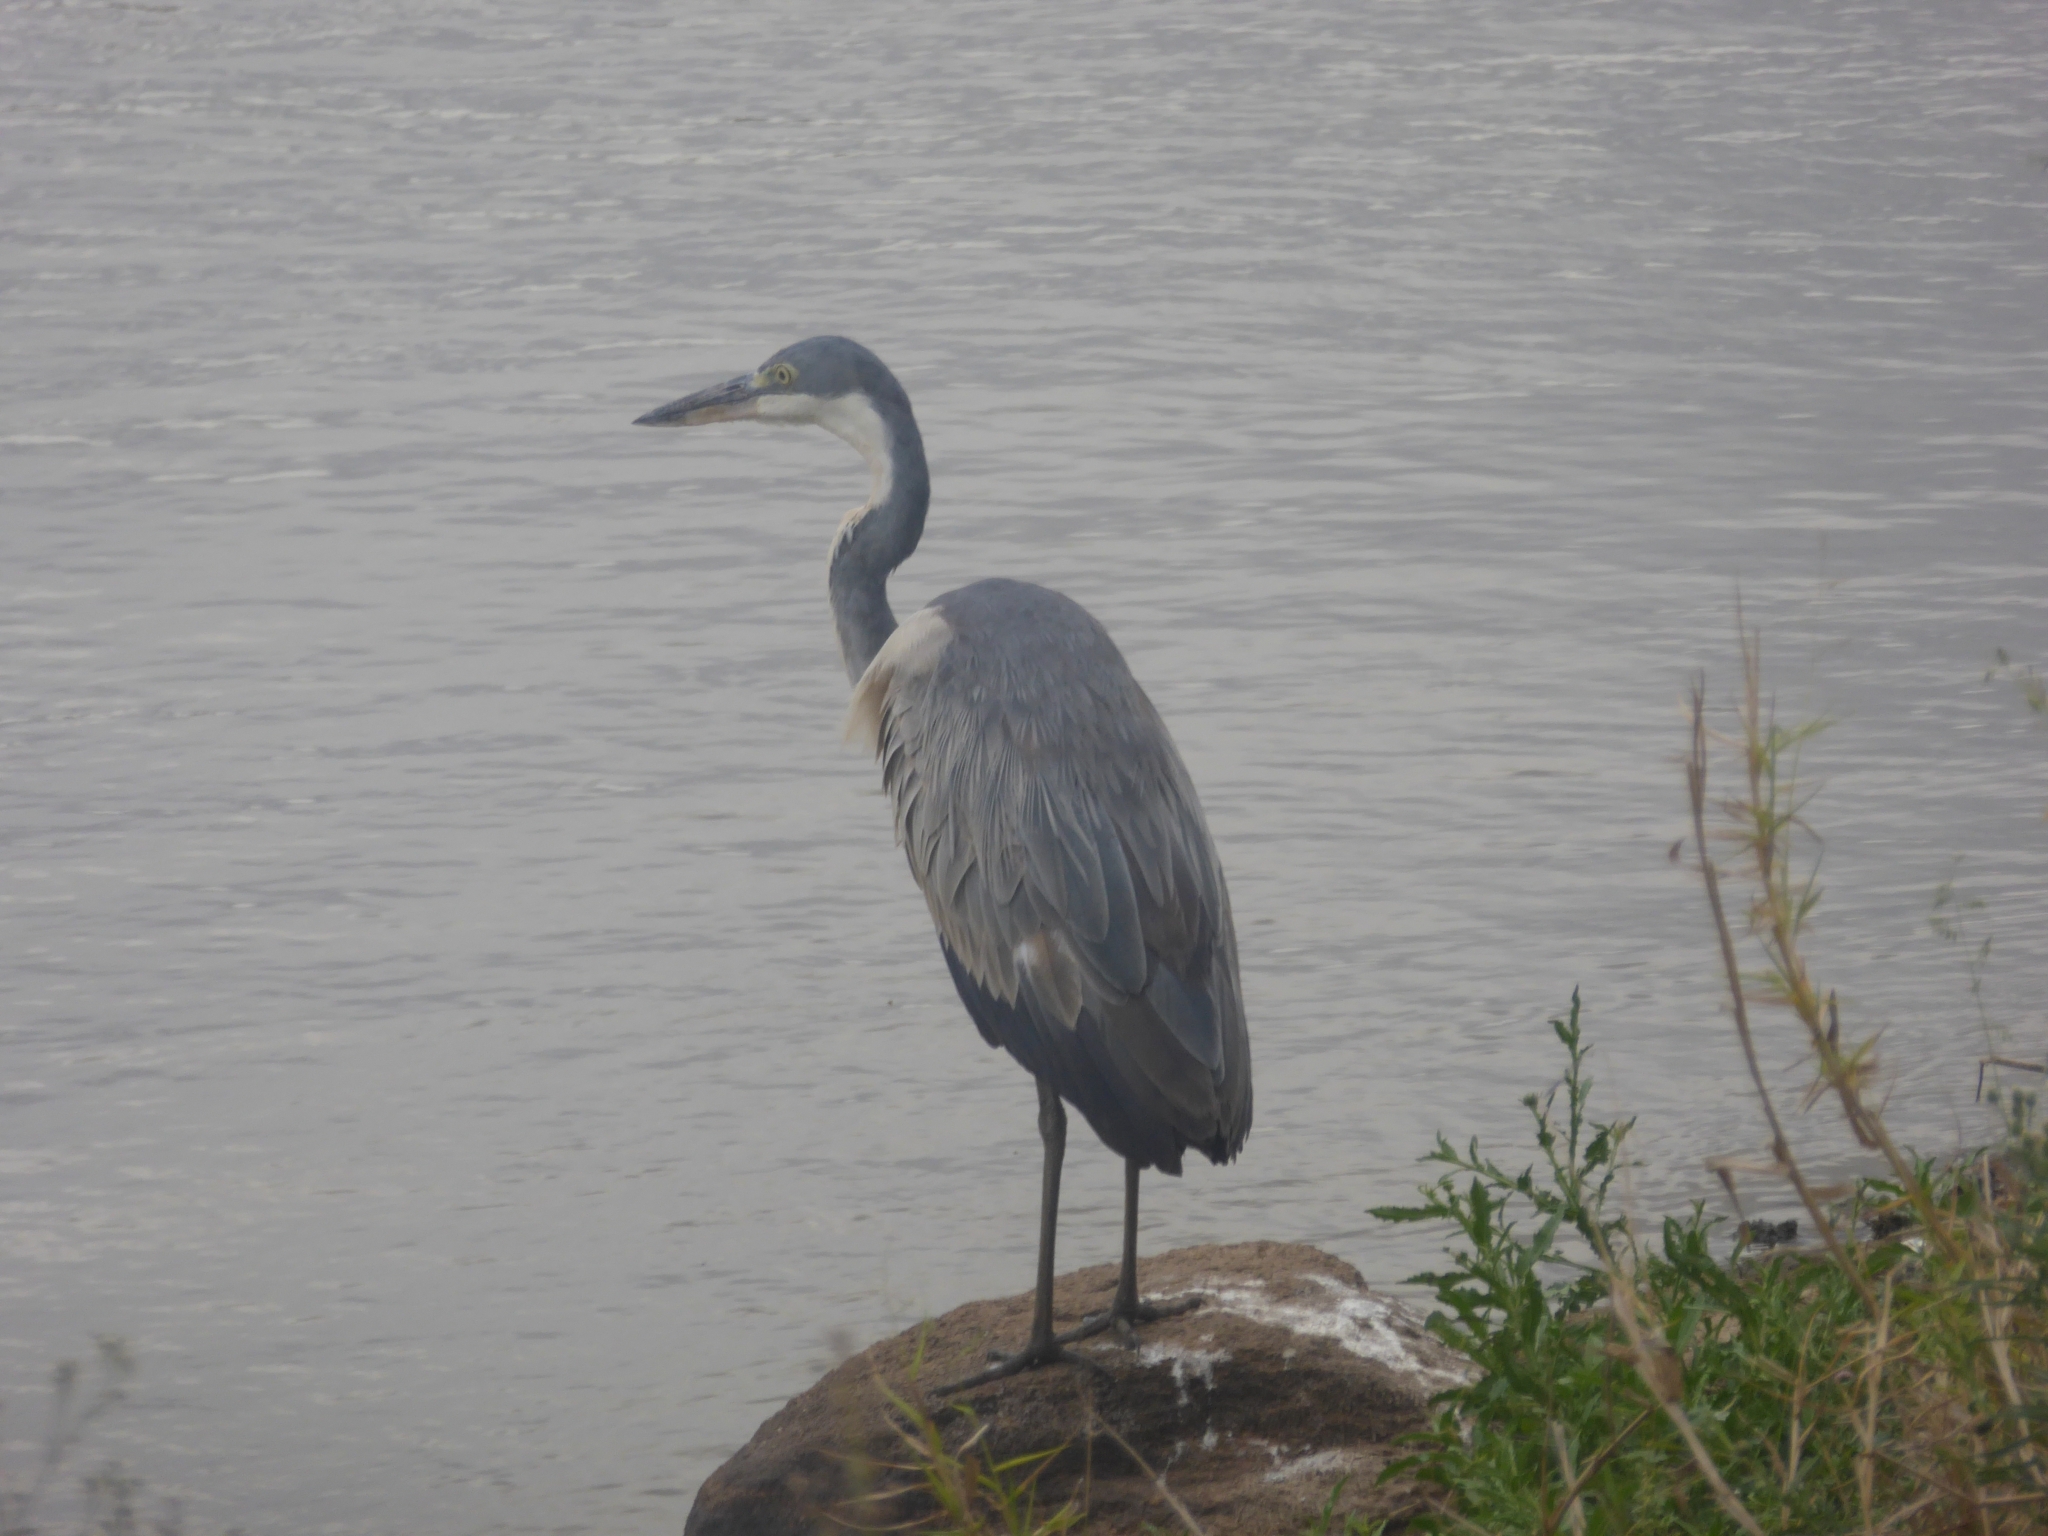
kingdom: Animalia
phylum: Chordata
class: Aves
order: Pelecaniformes
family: Ardeidae
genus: Ardea
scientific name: Ardea melanocephala
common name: Black-headed heron
